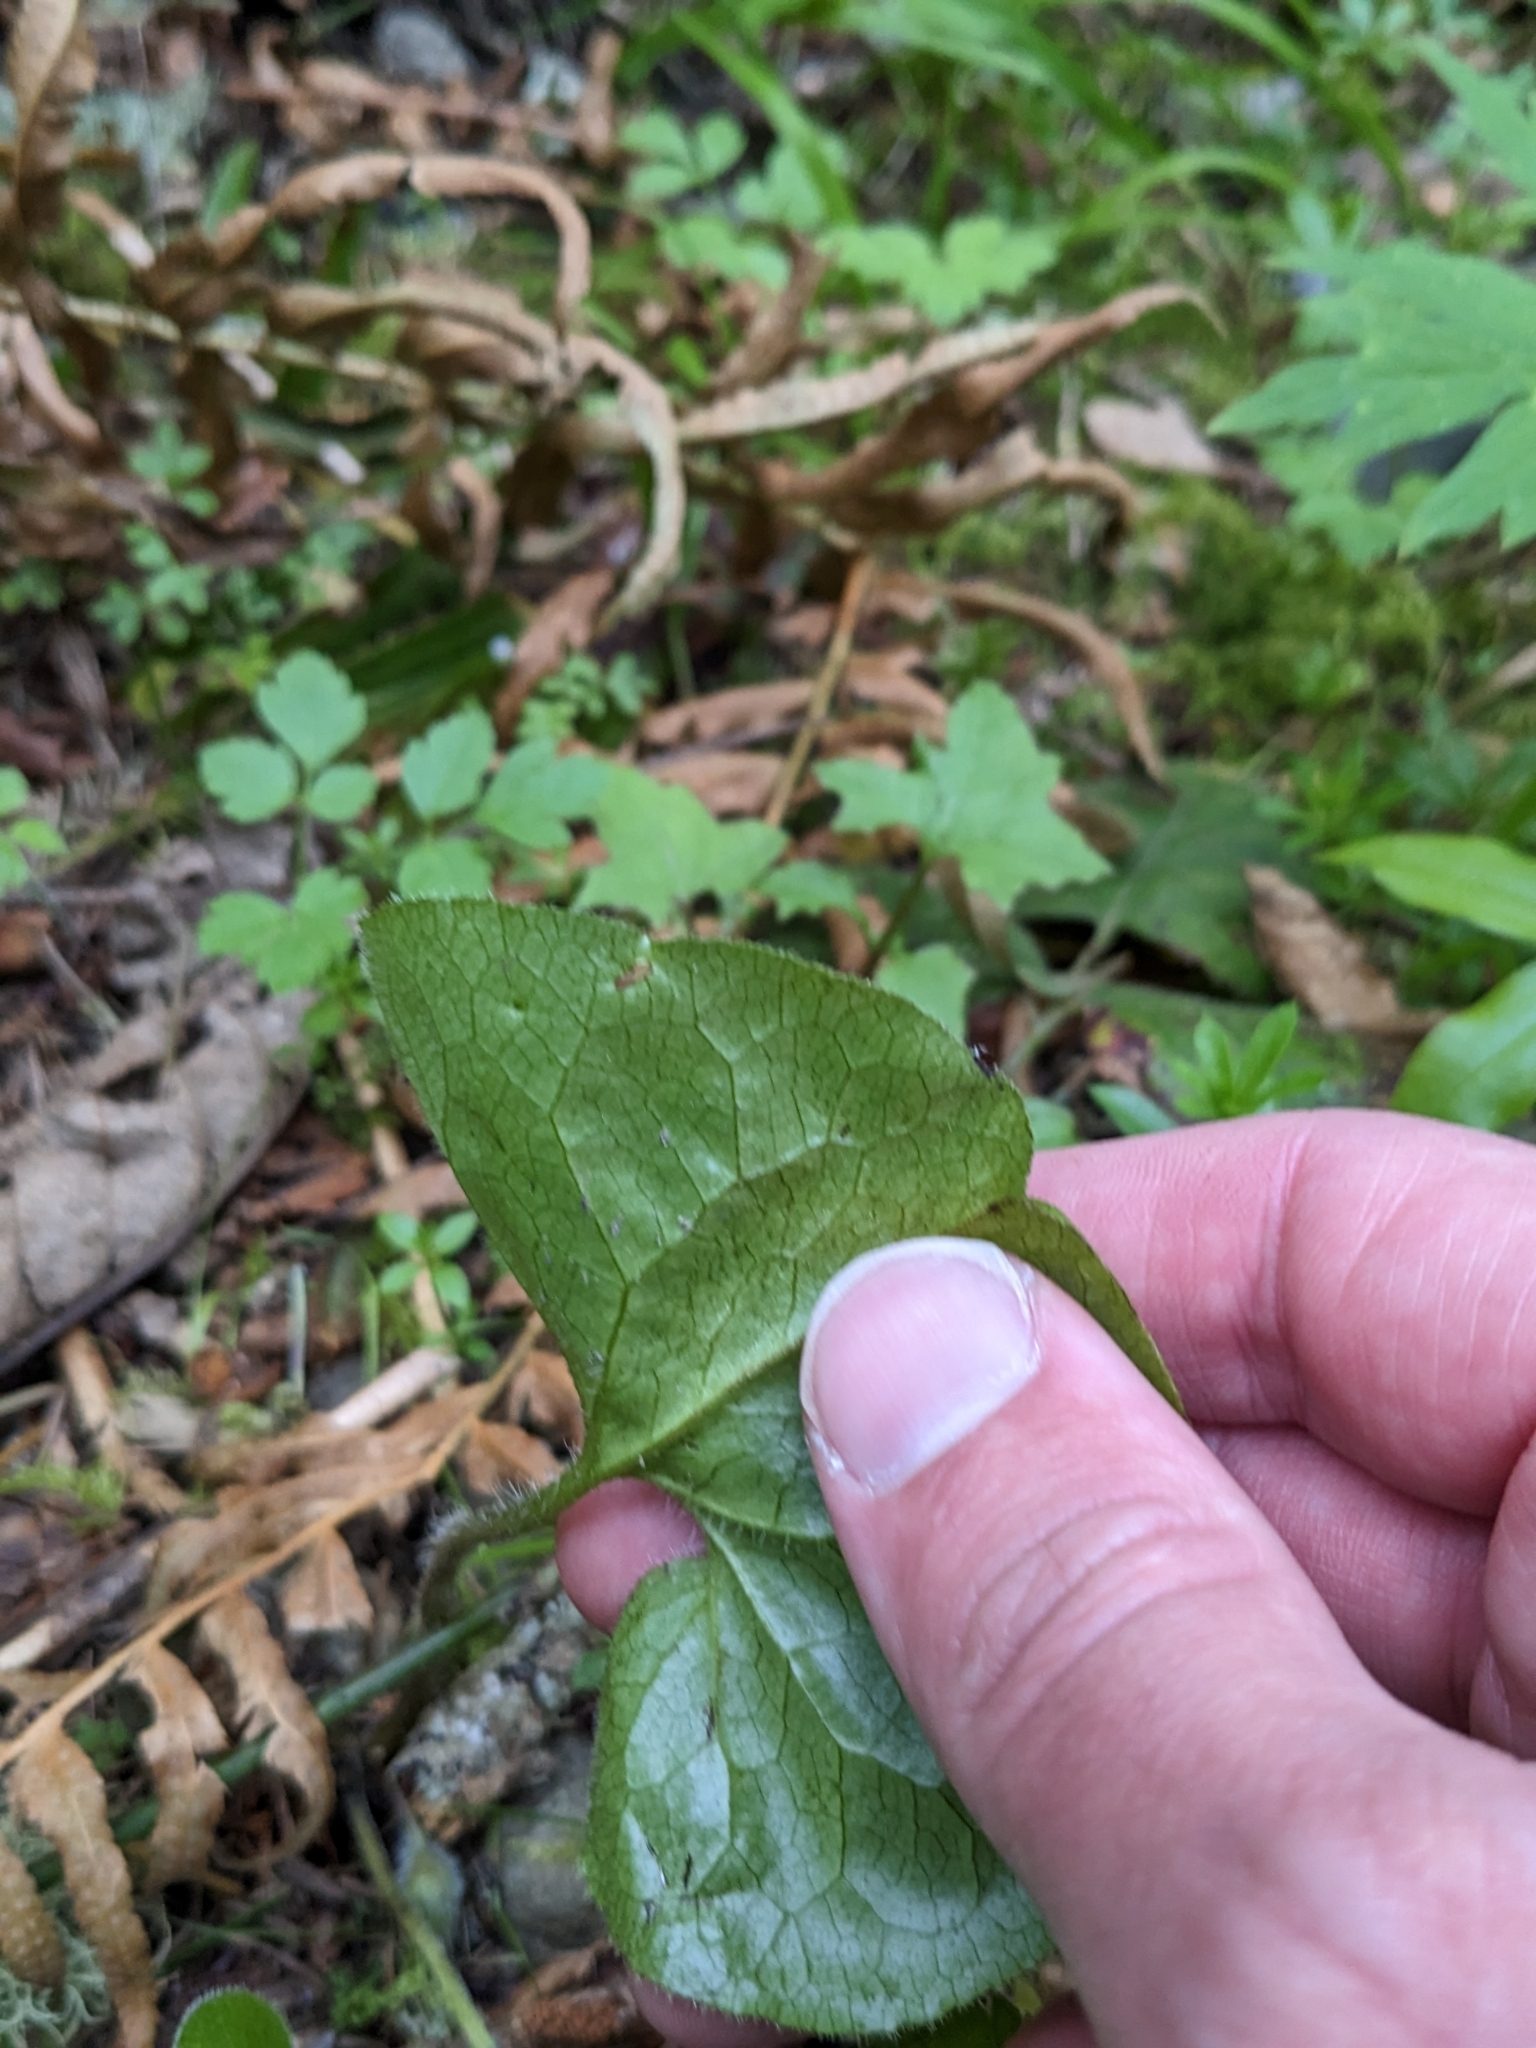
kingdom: Plantae
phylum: Tracheophyta
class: Magnoliopsida
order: Piperales
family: Aristolochiaceae
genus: Asarum
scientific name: Asarum caudatum
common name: Wild ginger
